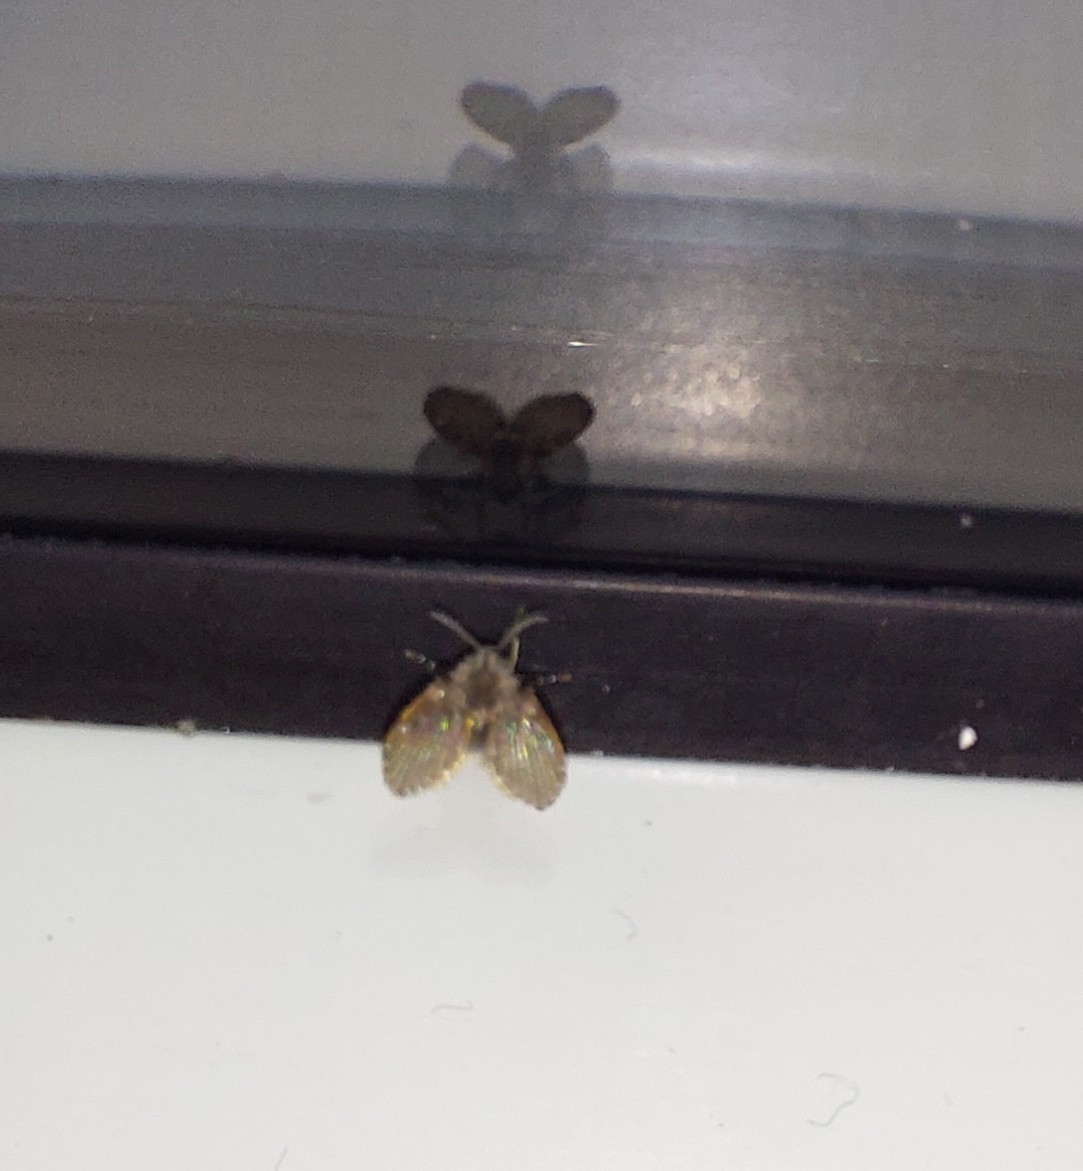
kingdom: Animalia
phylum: Arthropoda
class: Insecta
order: Diptera
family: Psychodidae
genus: Clogmia
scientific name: Clogmia albipunctatus
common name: White-spotted moth fly
